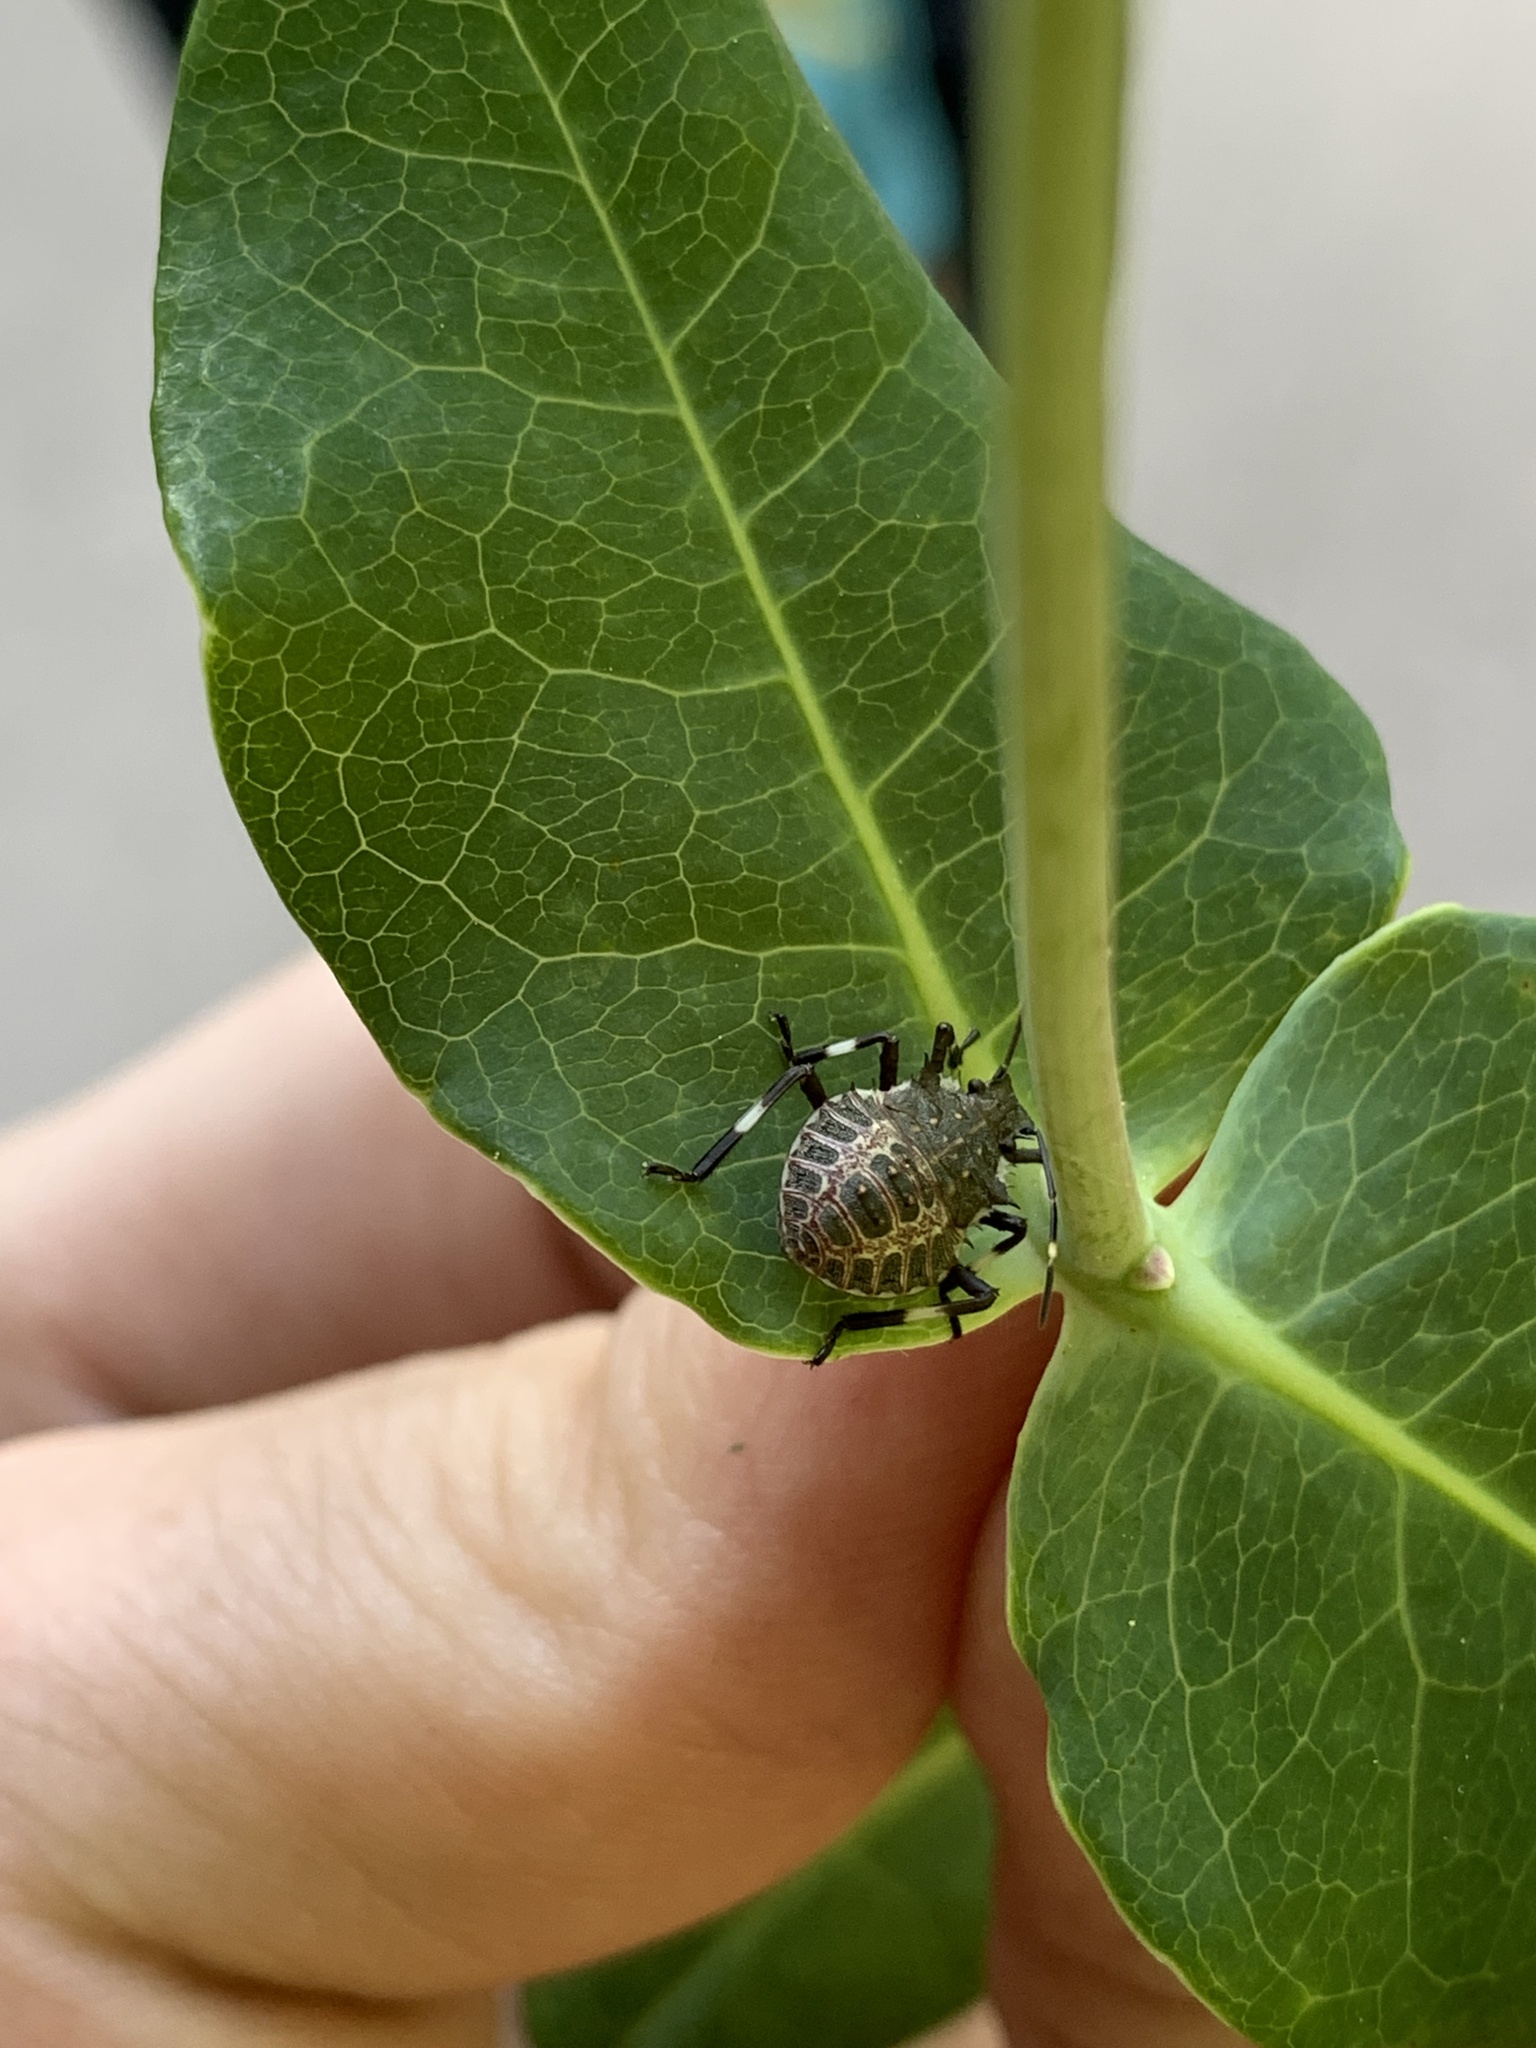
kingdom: Animalia
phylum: Arthropoda
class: Insecta
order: Hemiptera
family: Pentatomidae
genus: Halyomorpha
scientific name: Halyomorpha halys
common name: Brown marmorated stink bug
